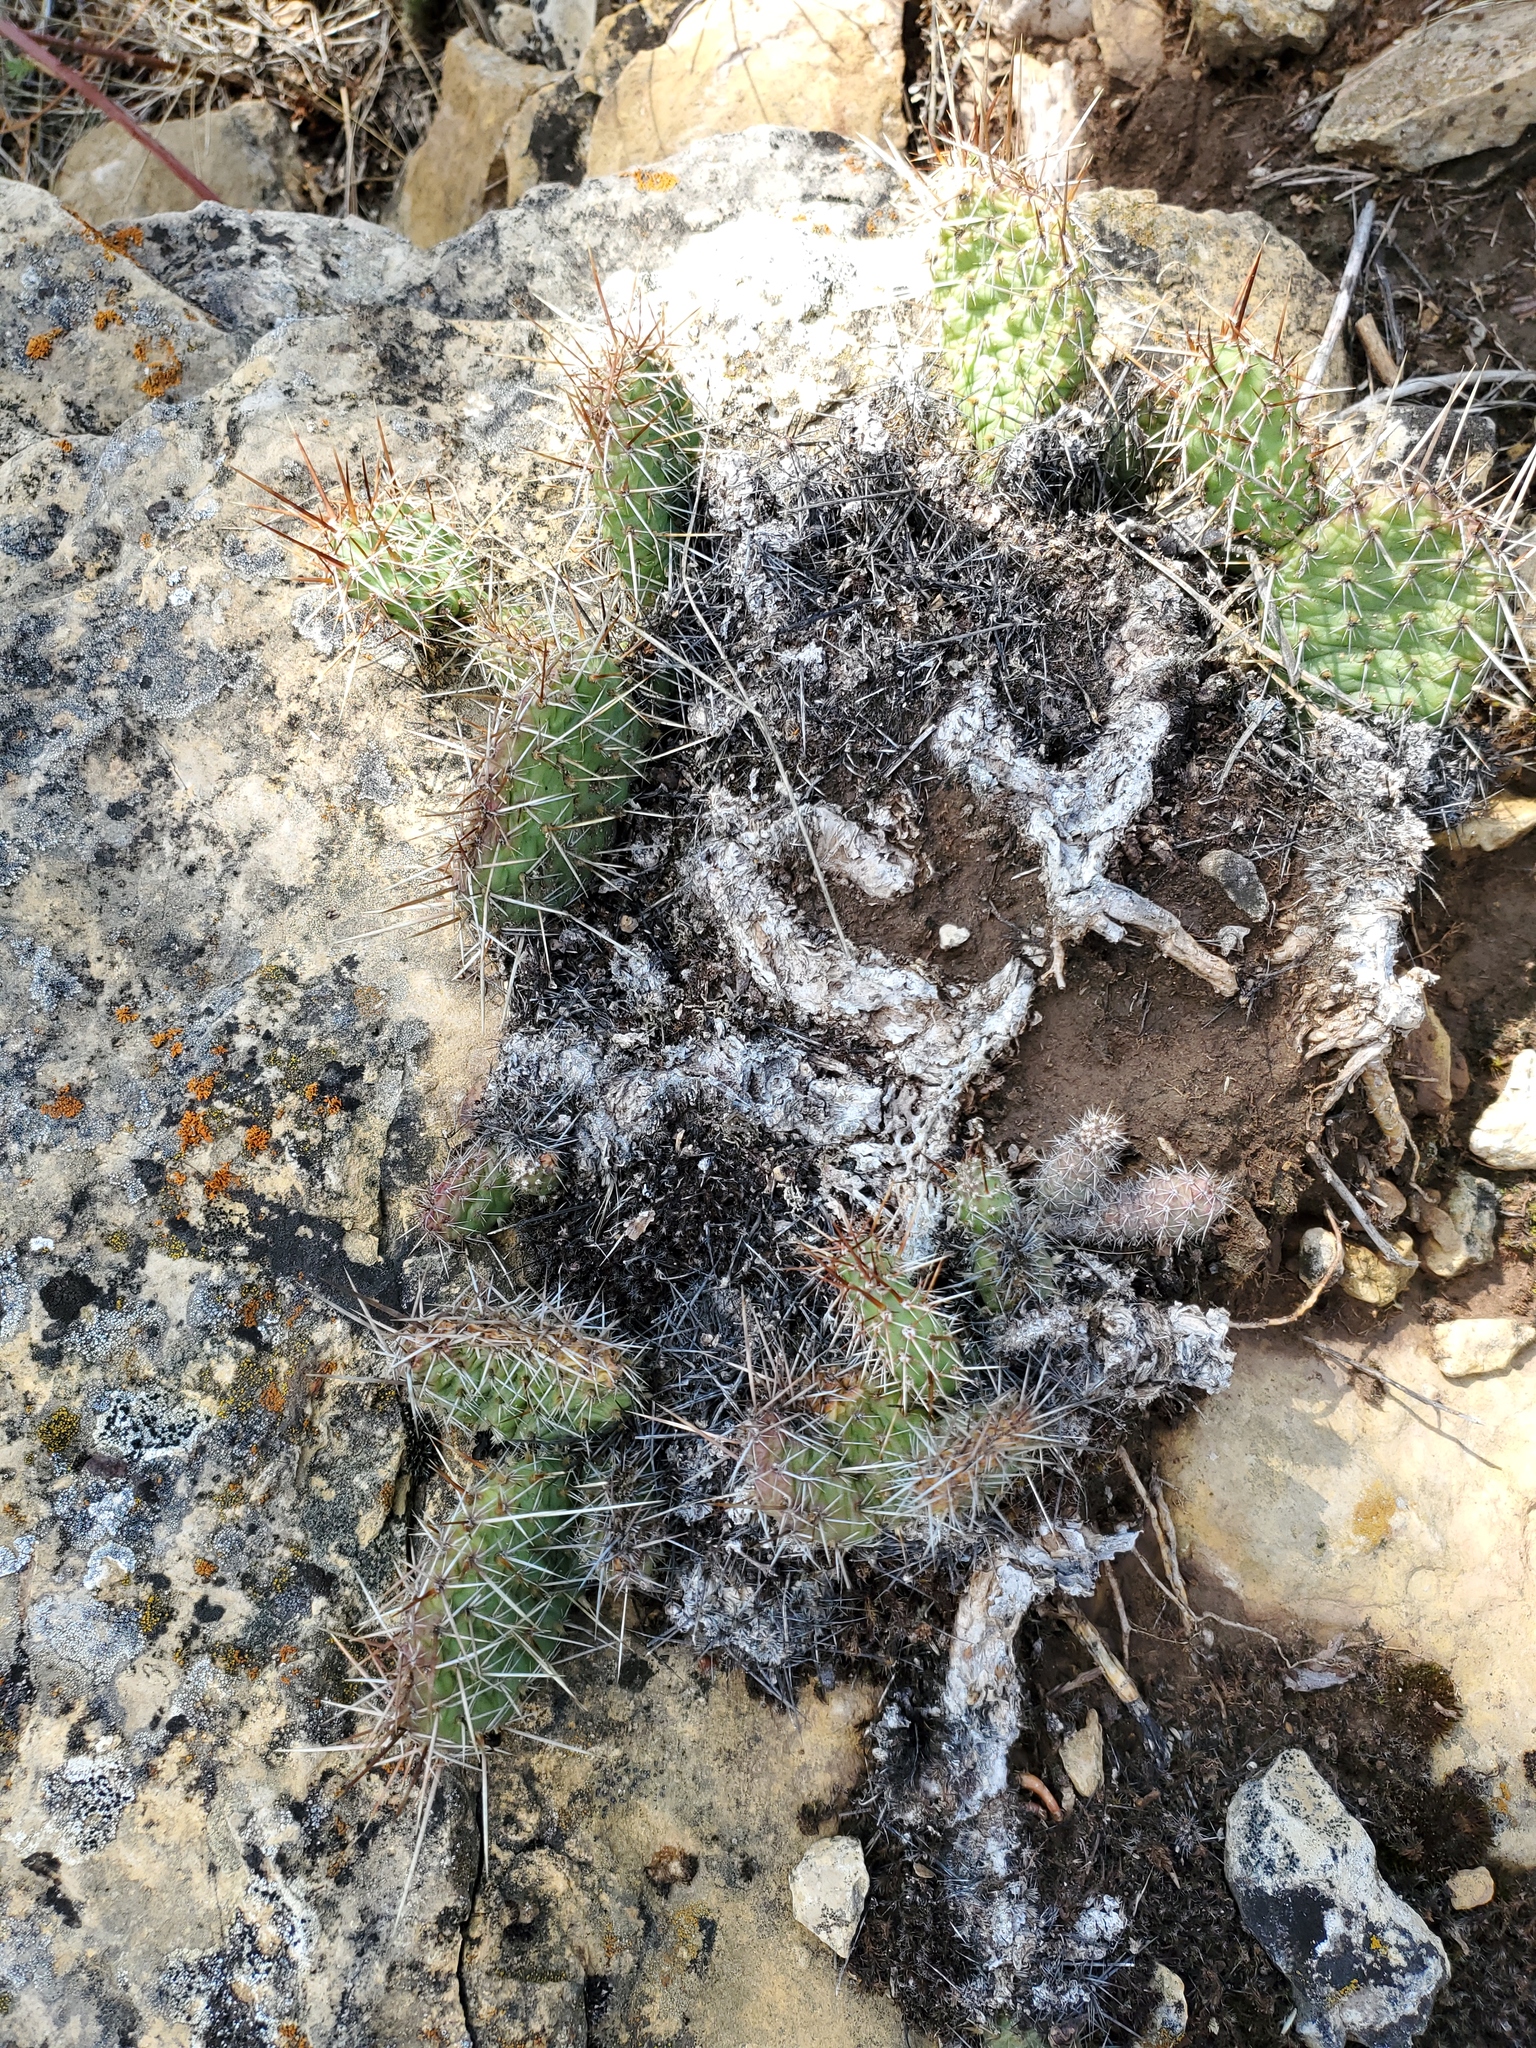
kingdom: Plantae
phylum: Tracheophyta
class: Magnoliopsida
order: Caryophyllales
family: Cactaceae
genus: Opuntia
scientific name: Opuntia polyacantha
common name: Plains prickly-pear
